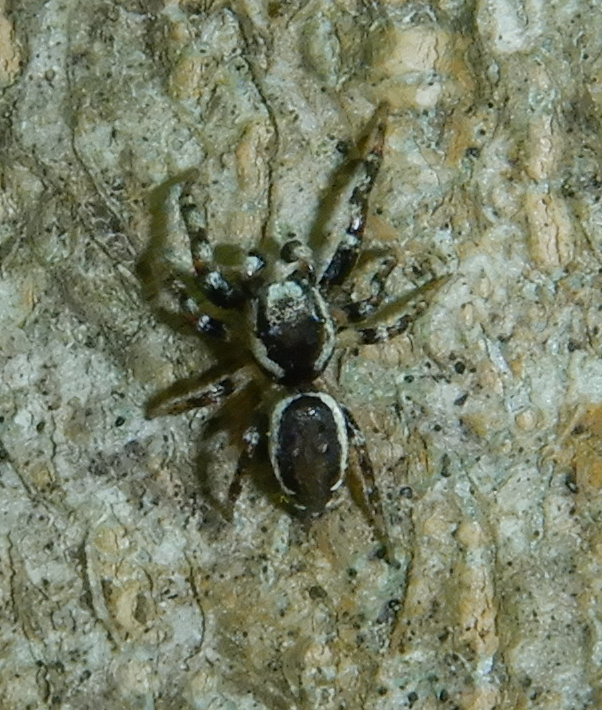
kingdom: Animalia
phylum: Arthropoda
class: Arachnida
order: Araneae
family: Salticidae
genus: Pelegrina
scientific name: Pelegrina proterva
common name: Common white-cheeked jumping spider
